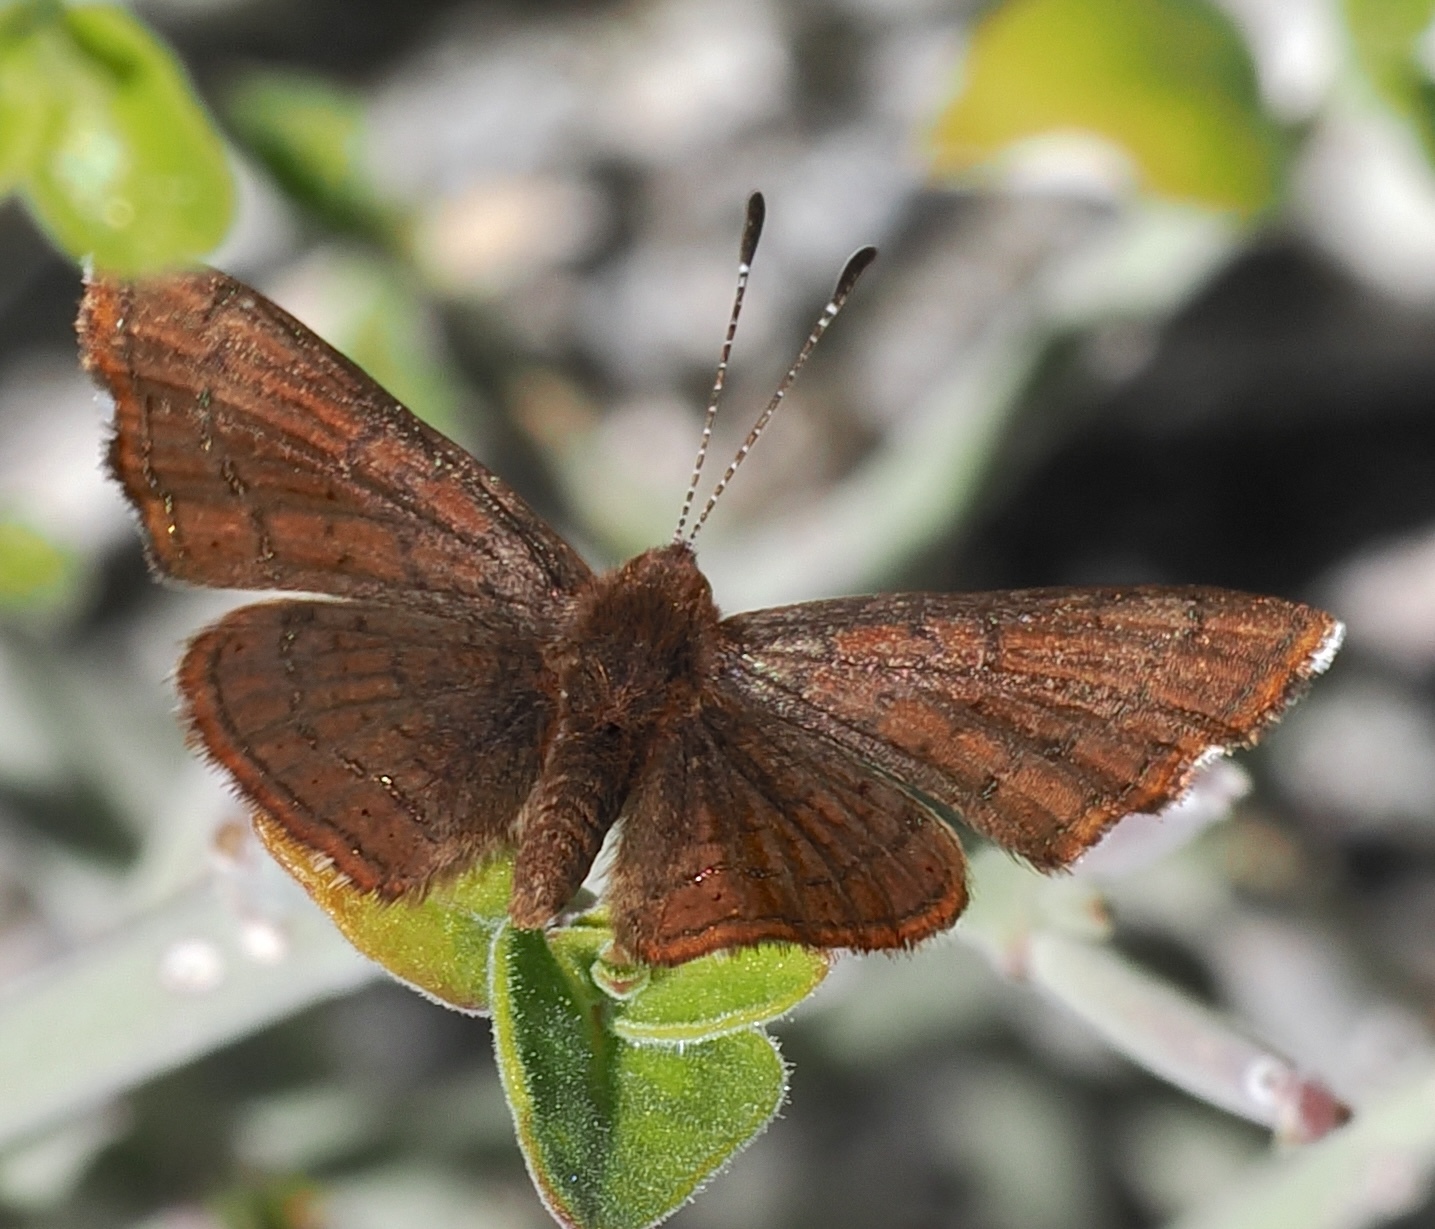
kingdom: Animalia
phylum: Arthropoda
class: Insecta
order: Lepidoptera
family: Lycaenidae
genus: Emesis
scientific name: Emesis wrighti
